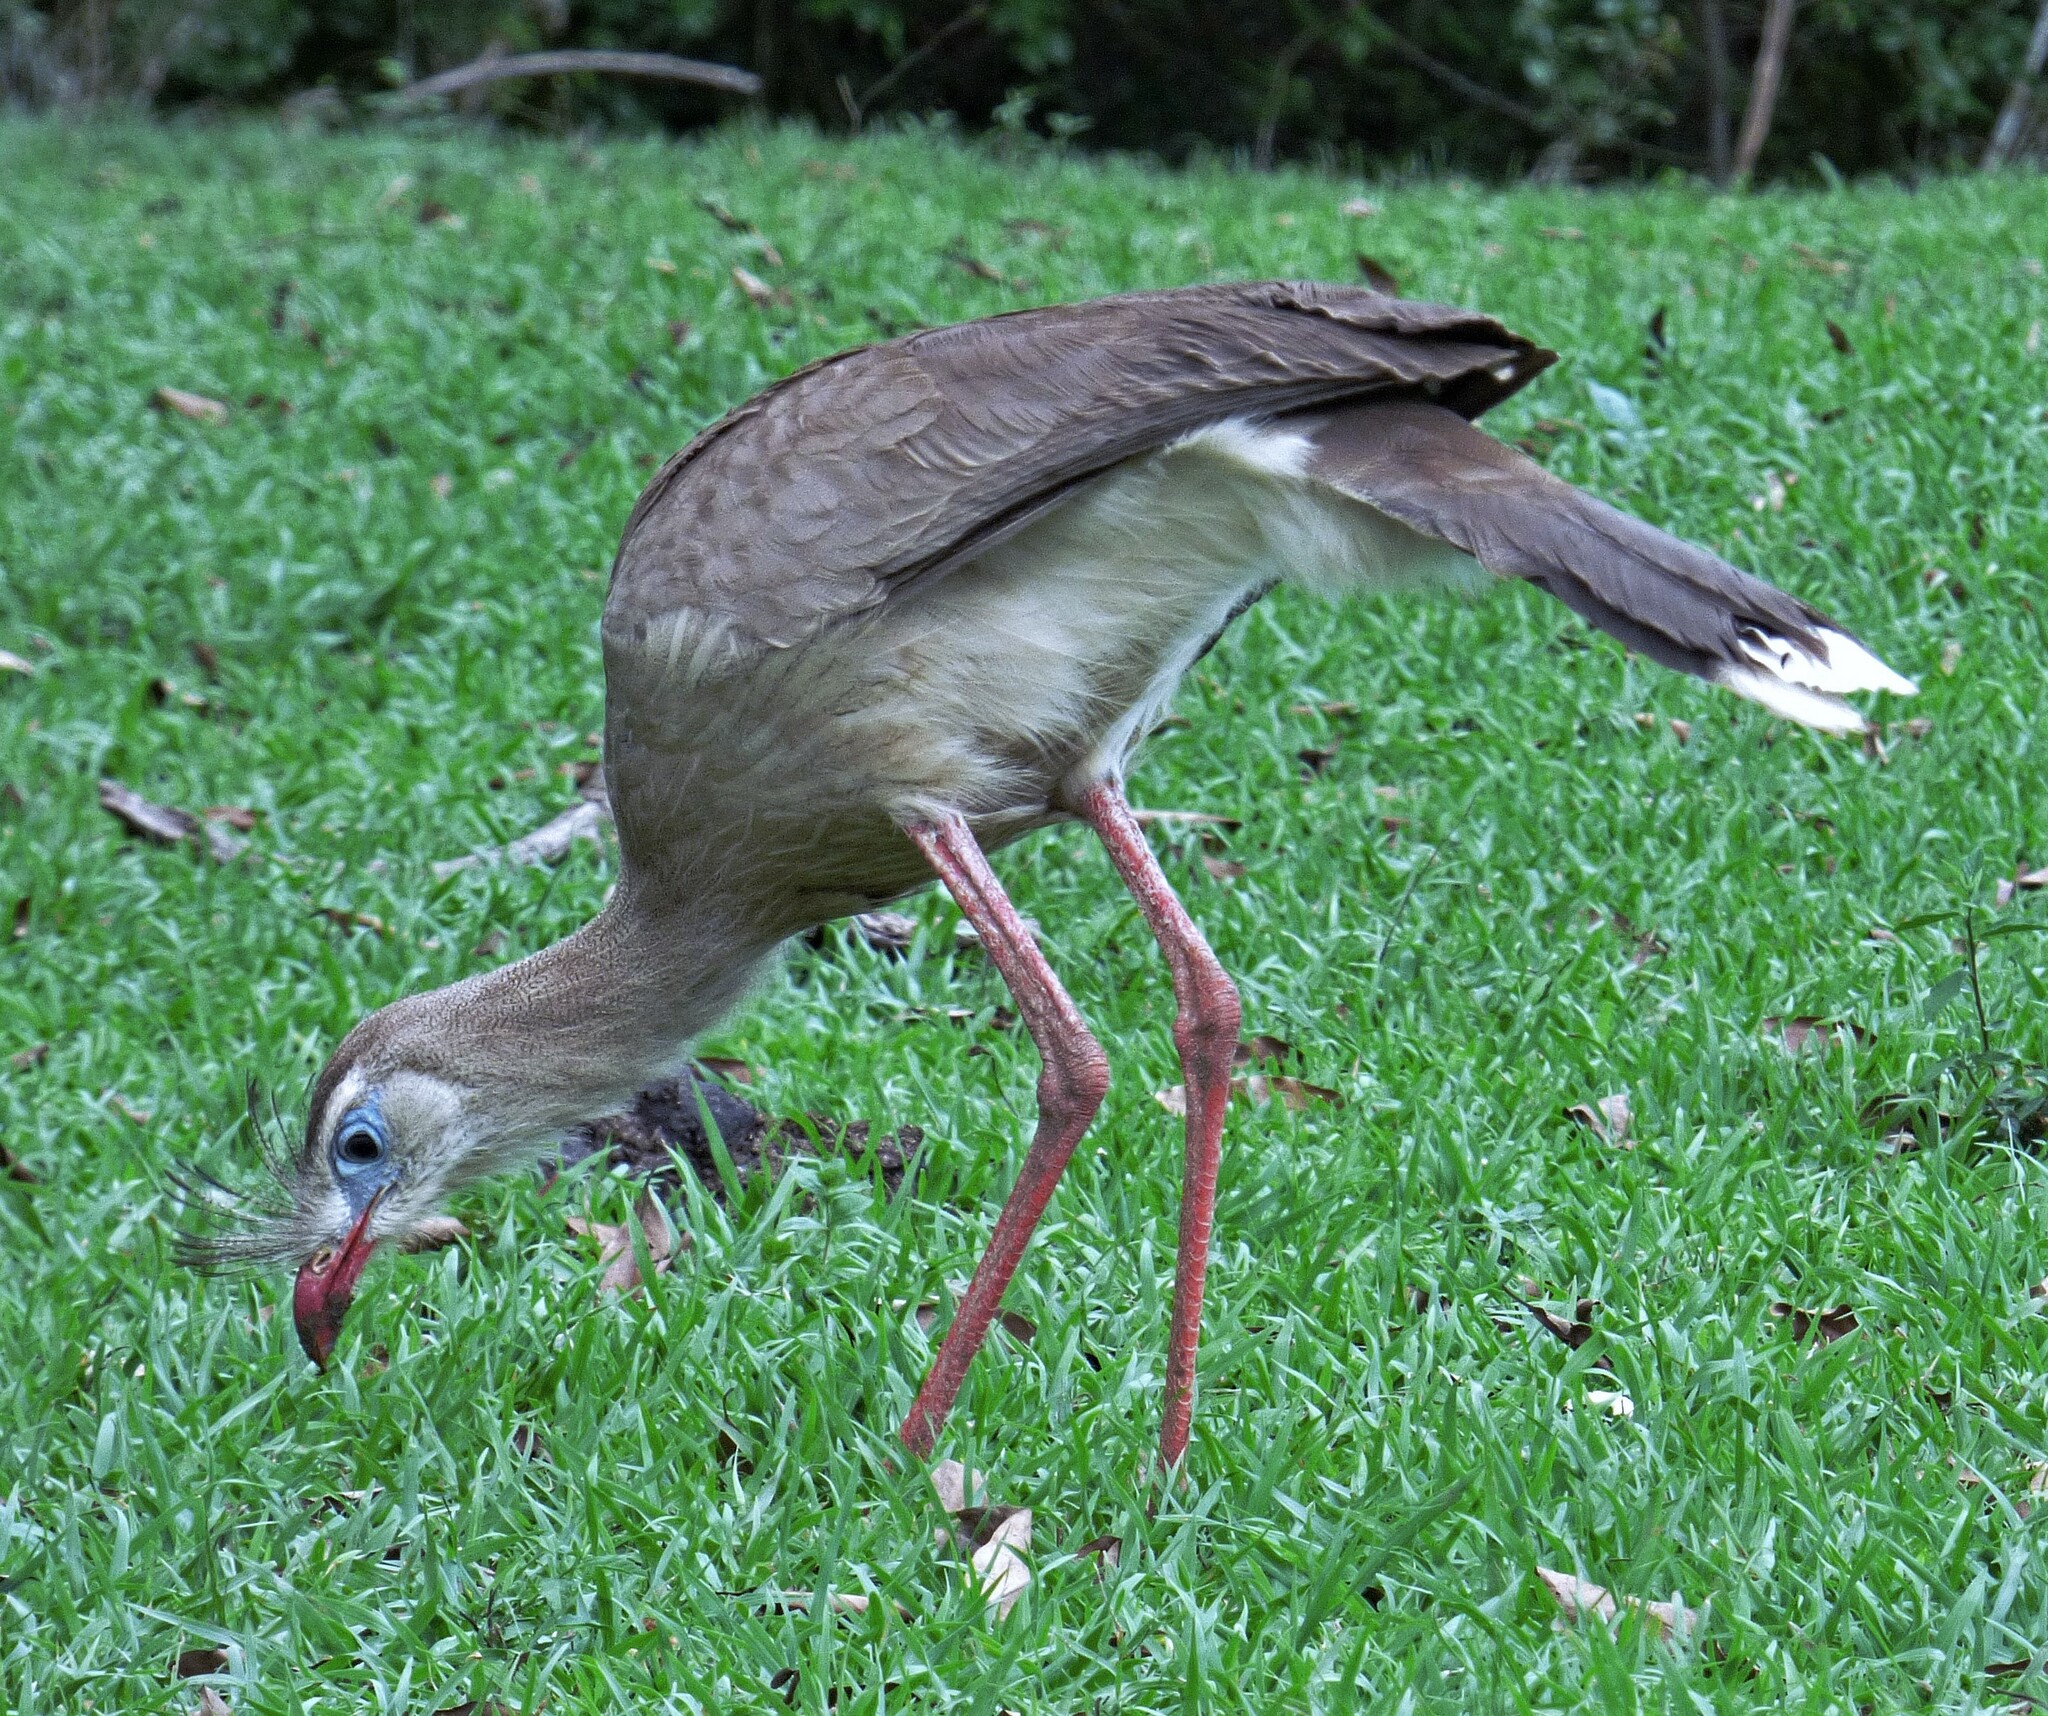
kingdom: Animalia
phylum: Chordata
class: Aves
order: Cariamiformes
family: Cariamidae
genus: Cariama
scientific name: Cariama cristata
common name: Red-legged seriema
